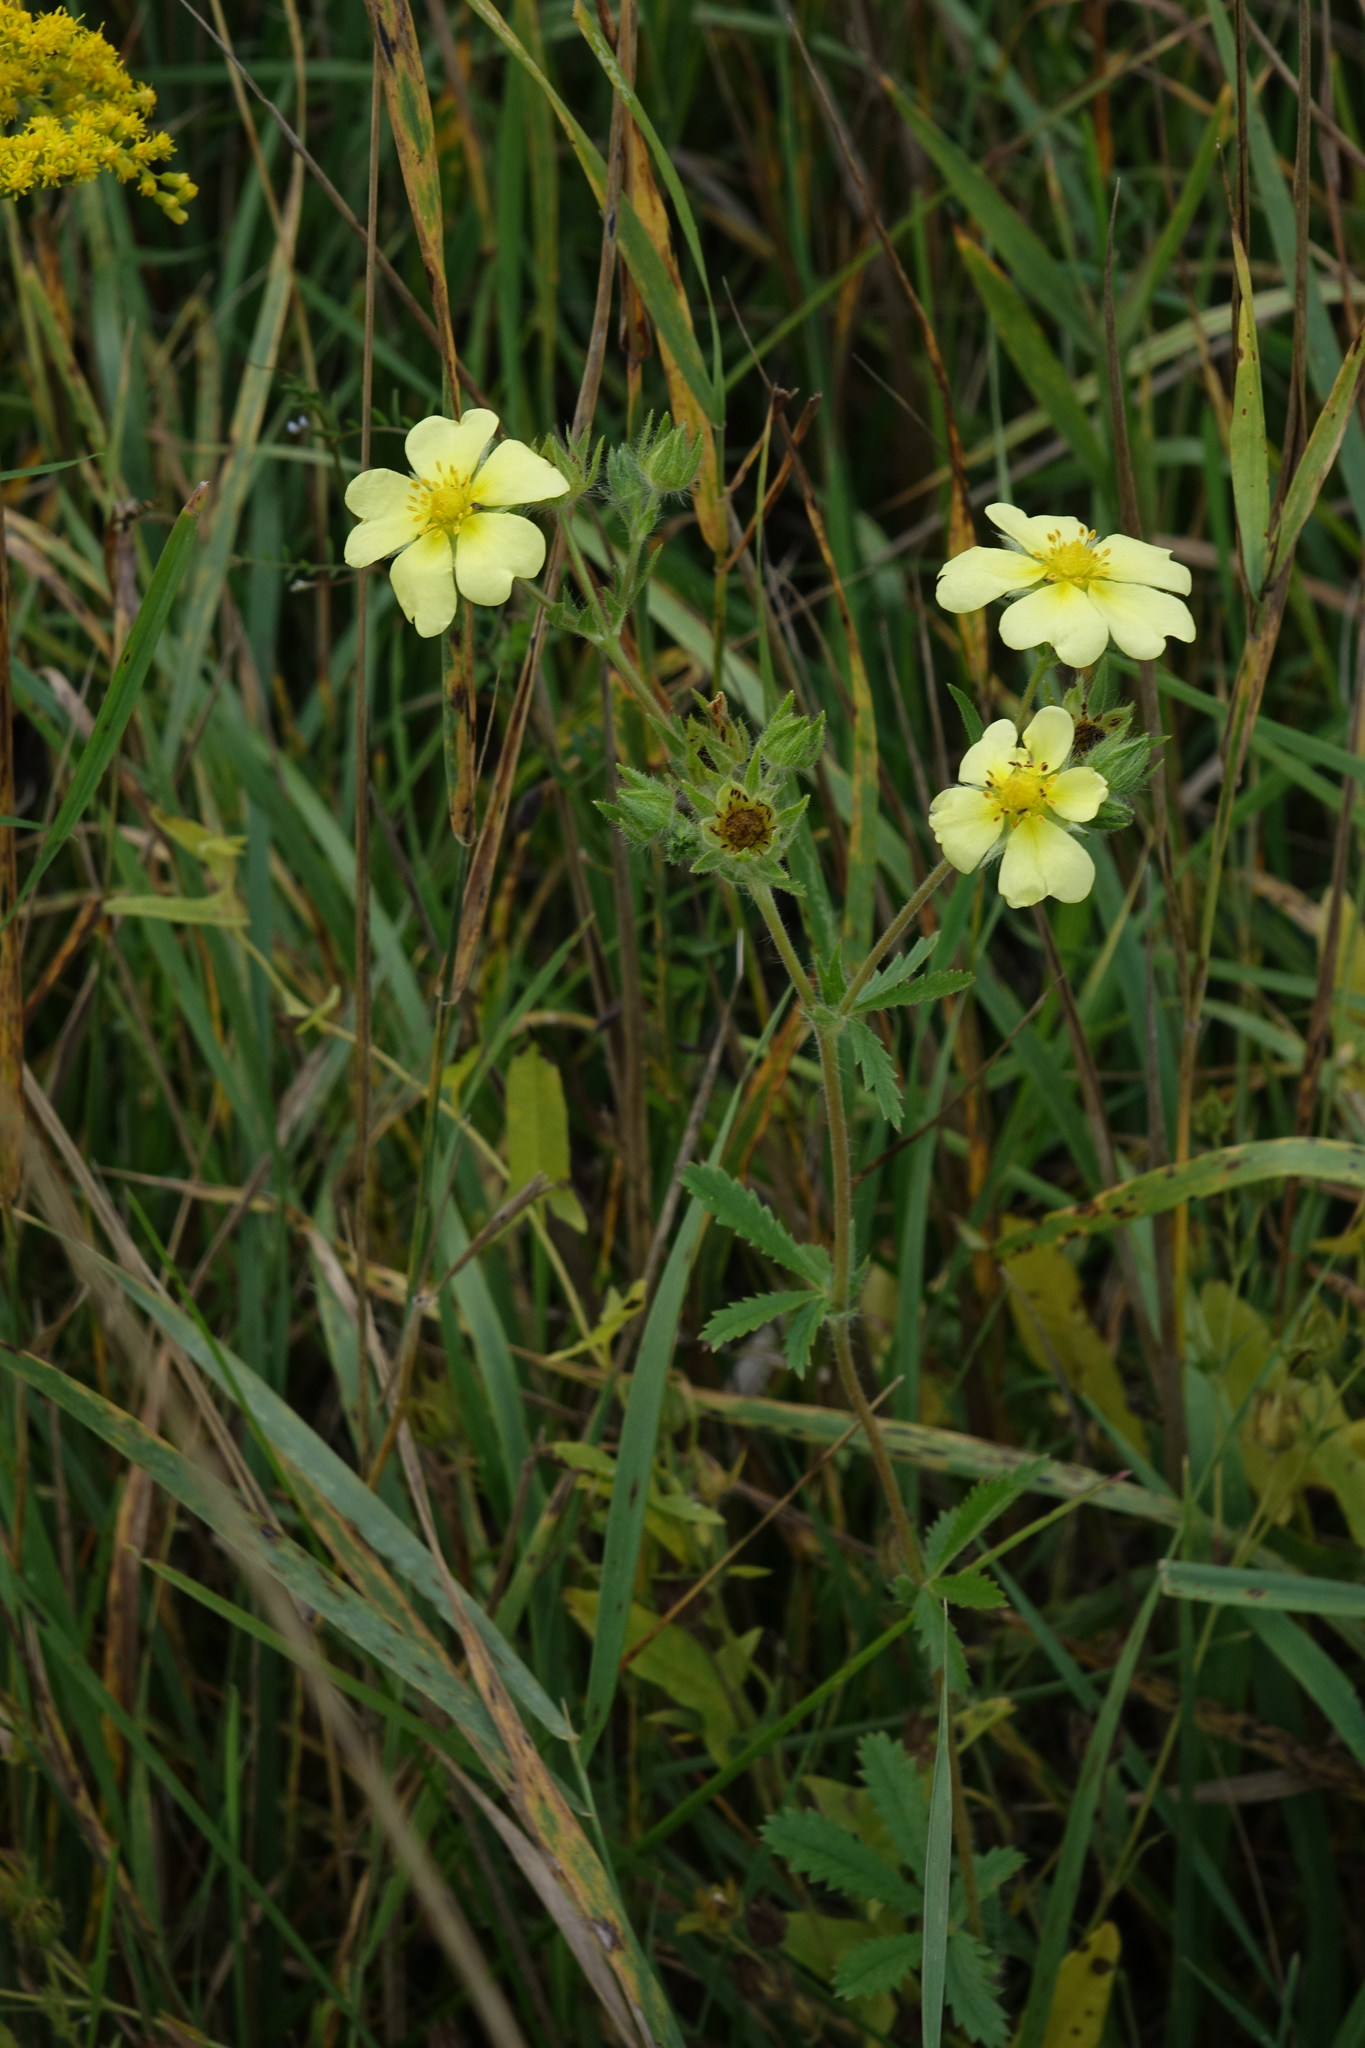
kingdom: Plantae
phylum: Tracheophyta
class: Magnoliopsida
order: Rosales
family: Rosaceae
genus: Potentilla
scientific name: Potentilla recta
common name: Sulphur cinquefoil
